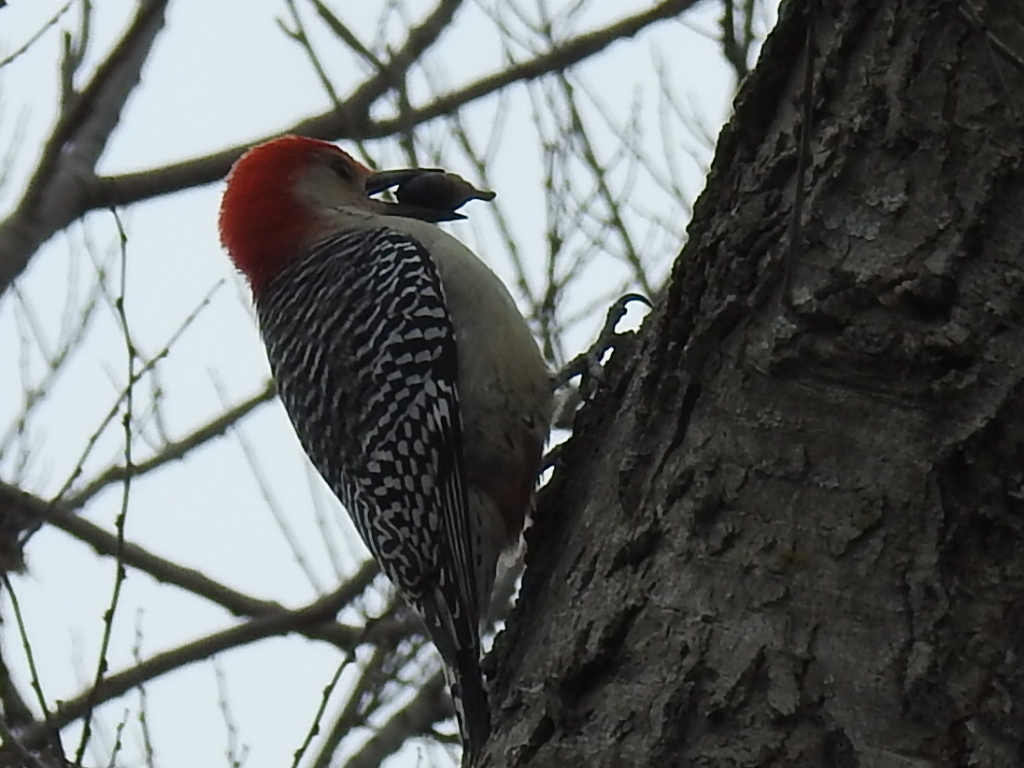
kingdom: Animalia
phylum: Chordata
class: Aves
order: Piciformes
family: Picidae
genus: Melanerpes
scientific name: Melanerpes carolinus
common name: Red-bellied woodpecker
